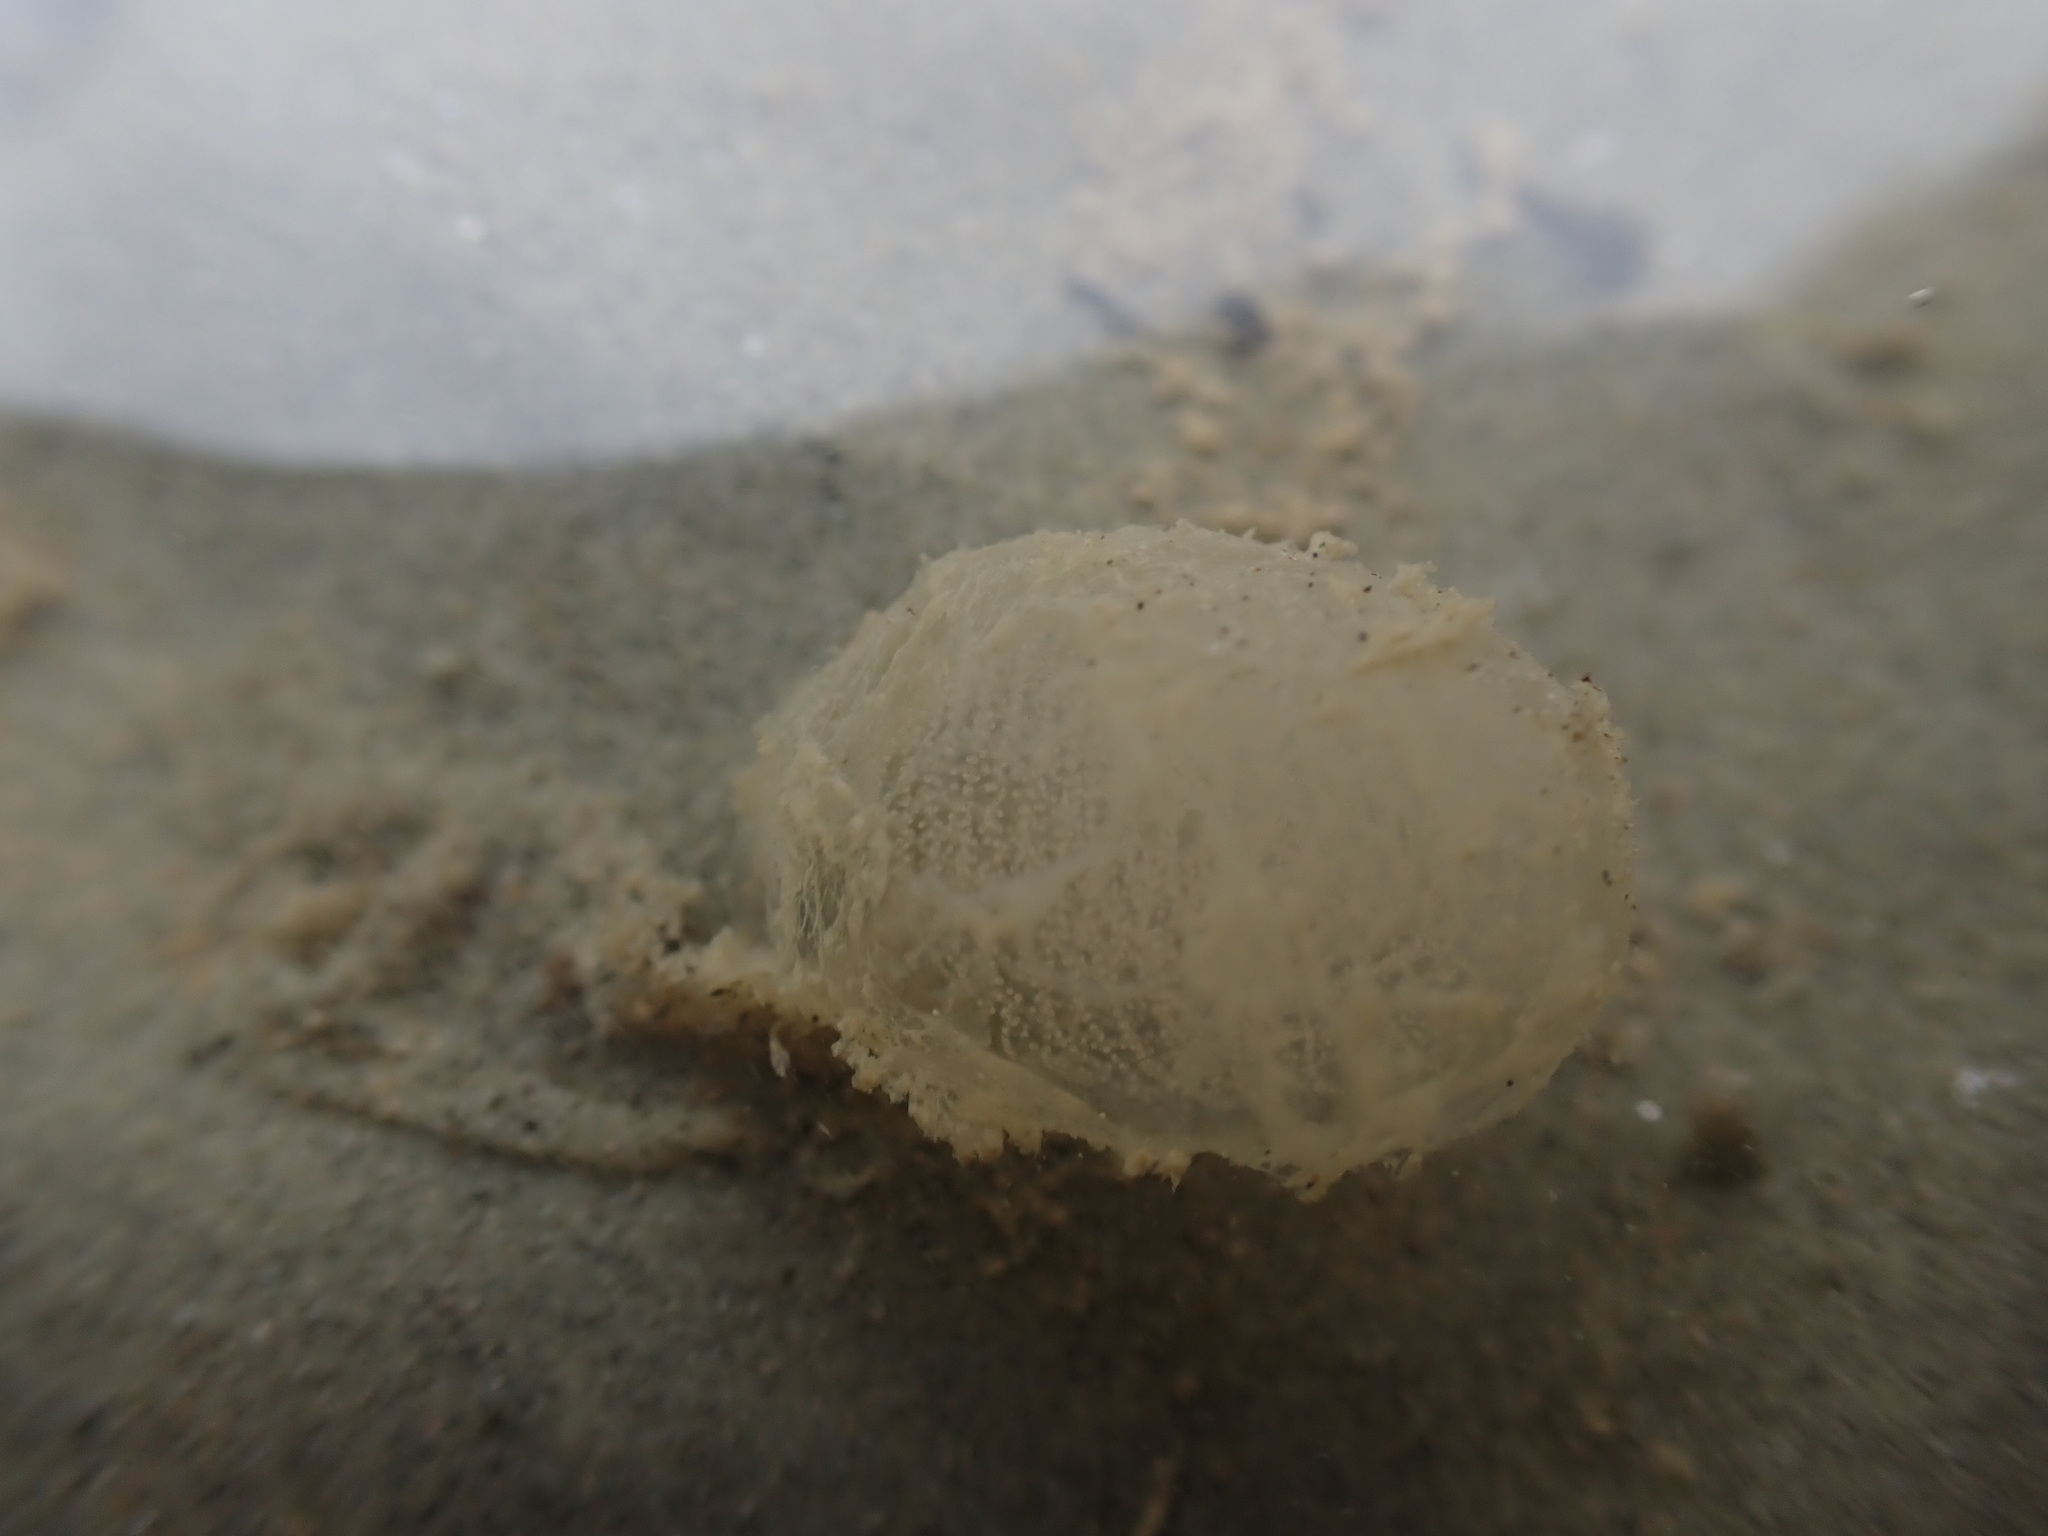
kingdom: Animalia
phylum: Mollusca
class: Gastropoda
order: Cephalaspidea
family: Aglajidae
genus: Melanochlamys
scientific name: Melanochlamys cylindrica
